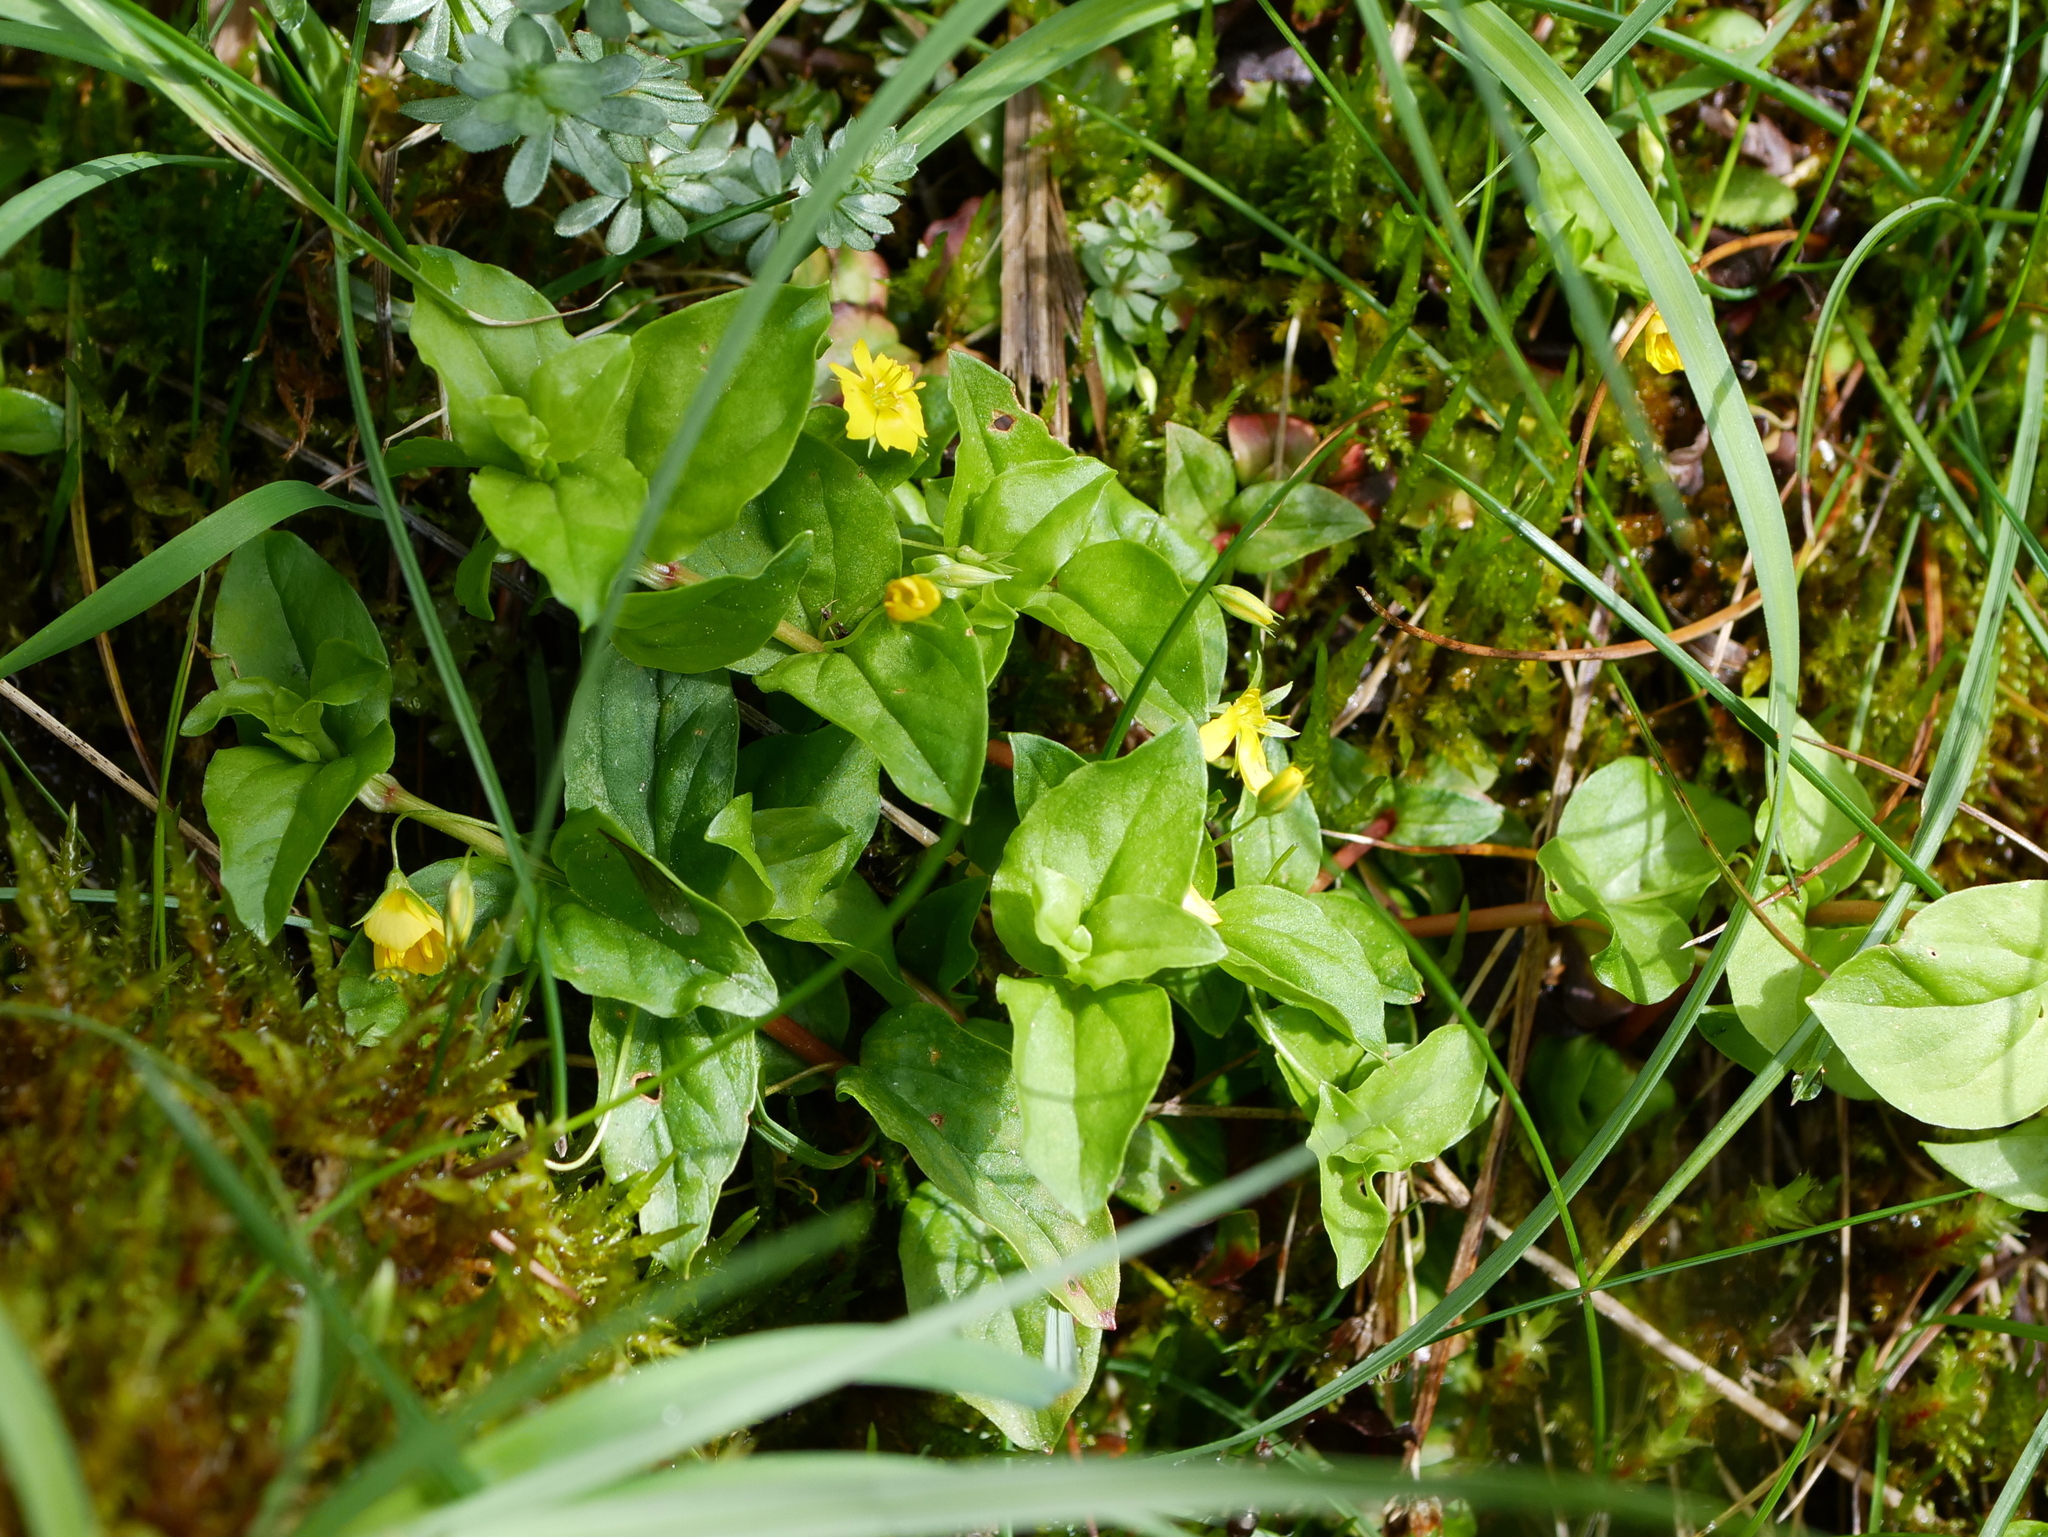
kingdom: Plantae
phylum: Tracheophyta
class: Magnoliopsida
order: Ericales
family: Primulaceae
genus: Lysimachia
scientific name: Lysimachia nemorum
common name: Yellow pimpernel
